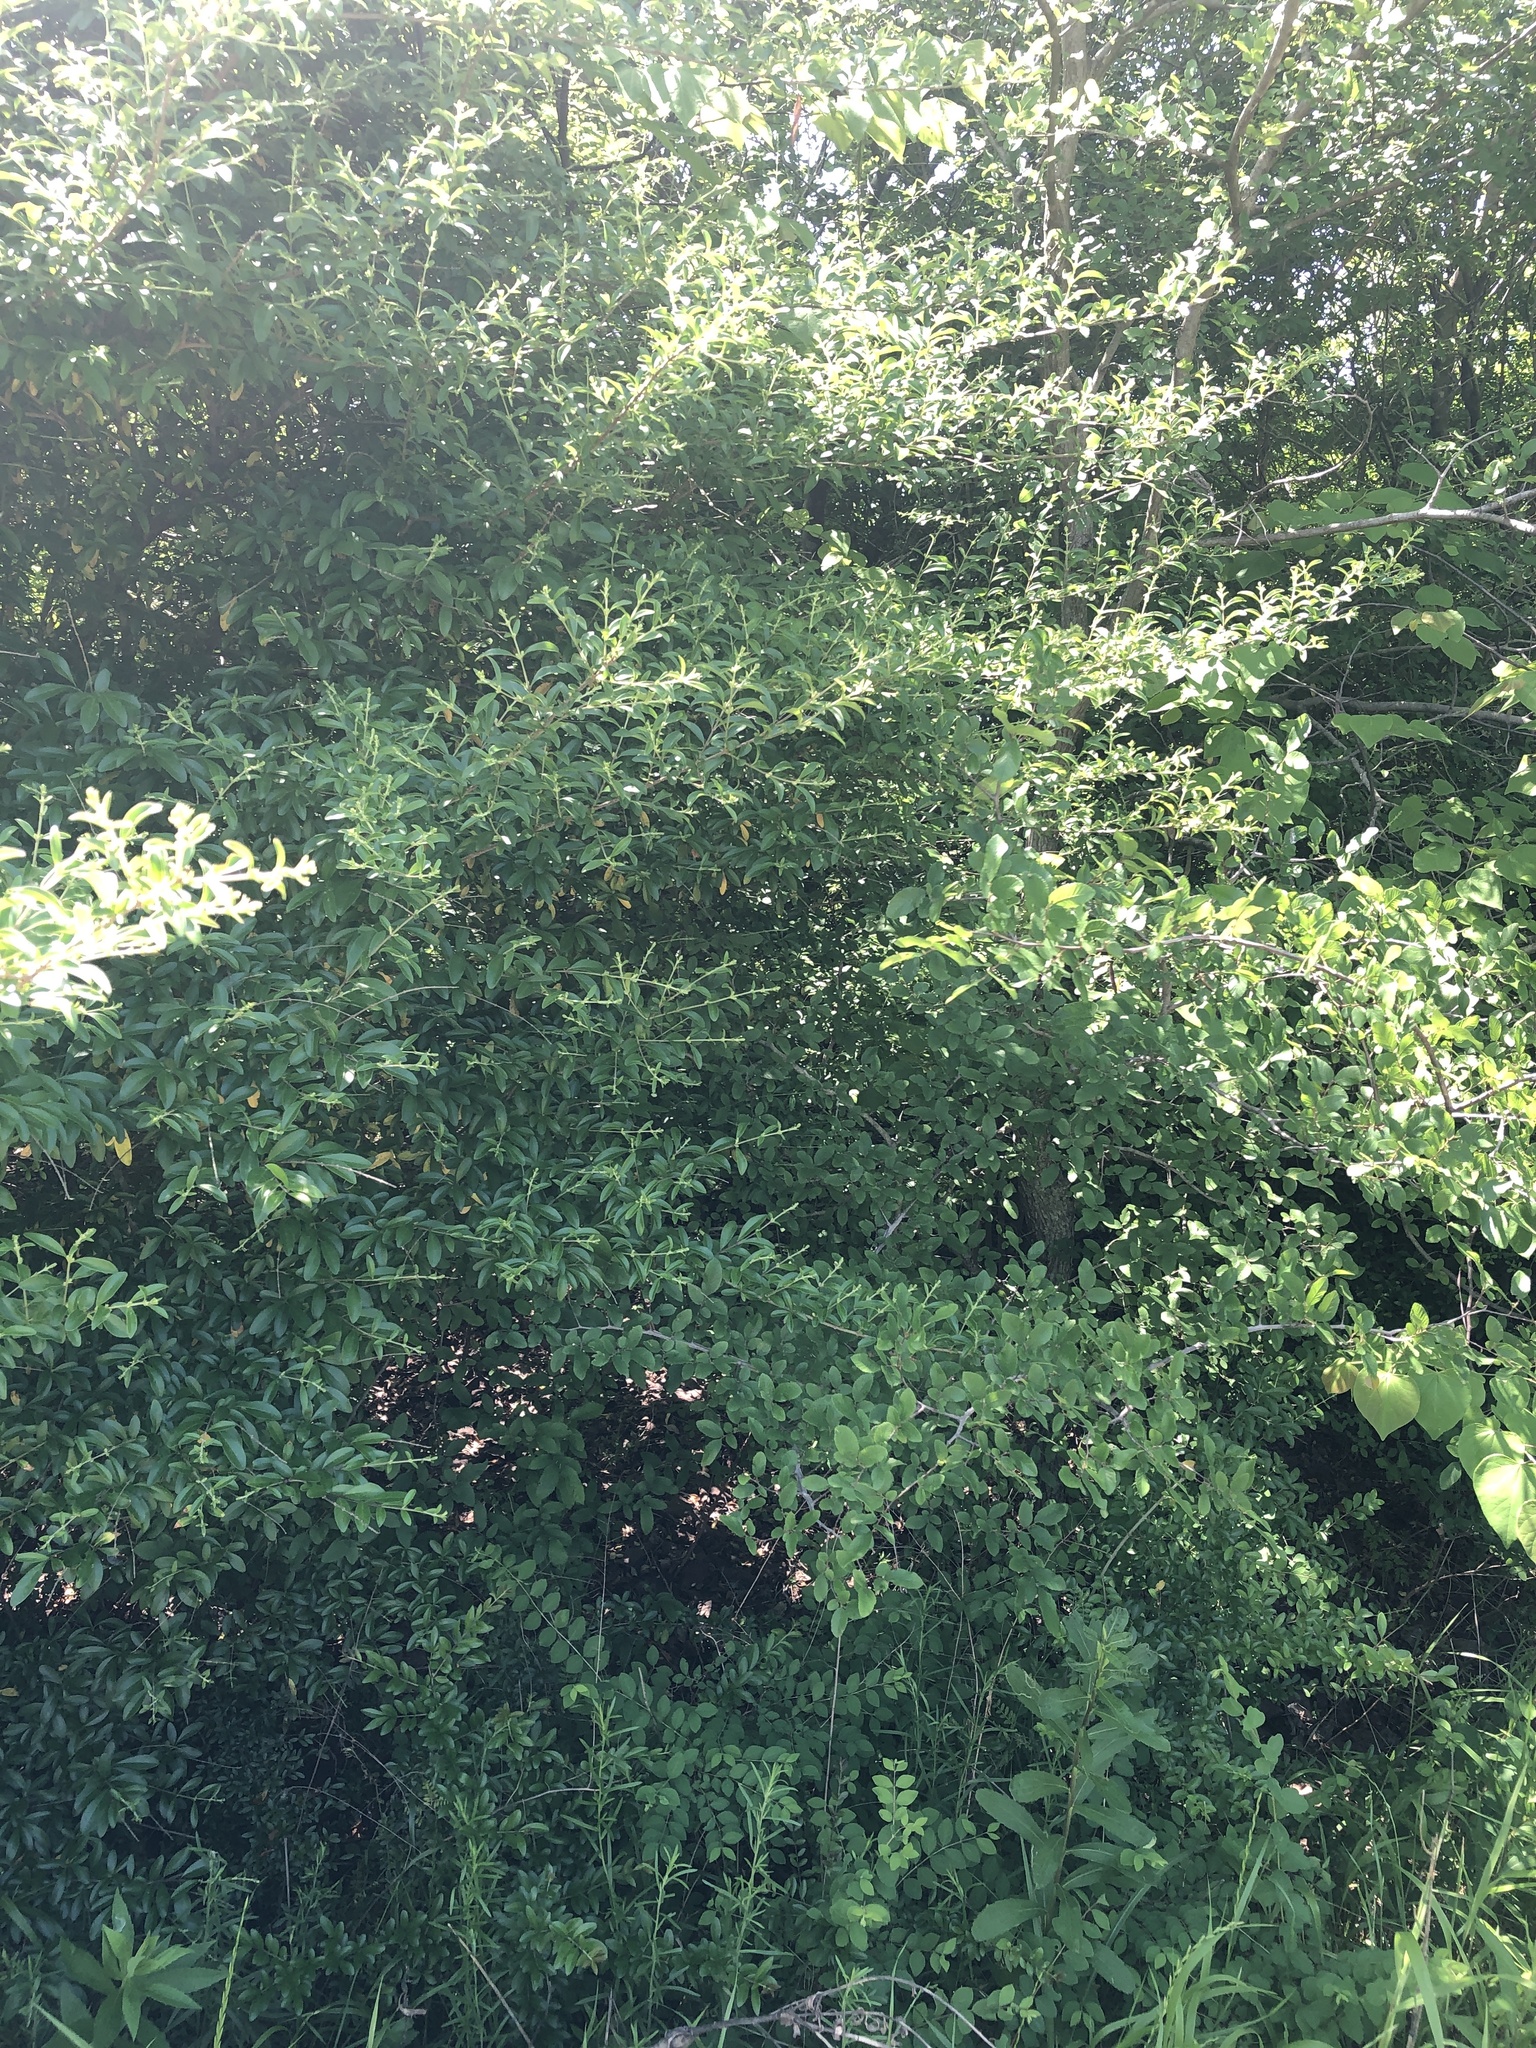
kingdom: Plantae
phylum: Tracheophyta
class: Magnoliopsida
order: Lamiales
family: Oleaceae
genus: Ligustrum
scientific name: Ligustrum quihoui
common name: Waxyleaf privet
